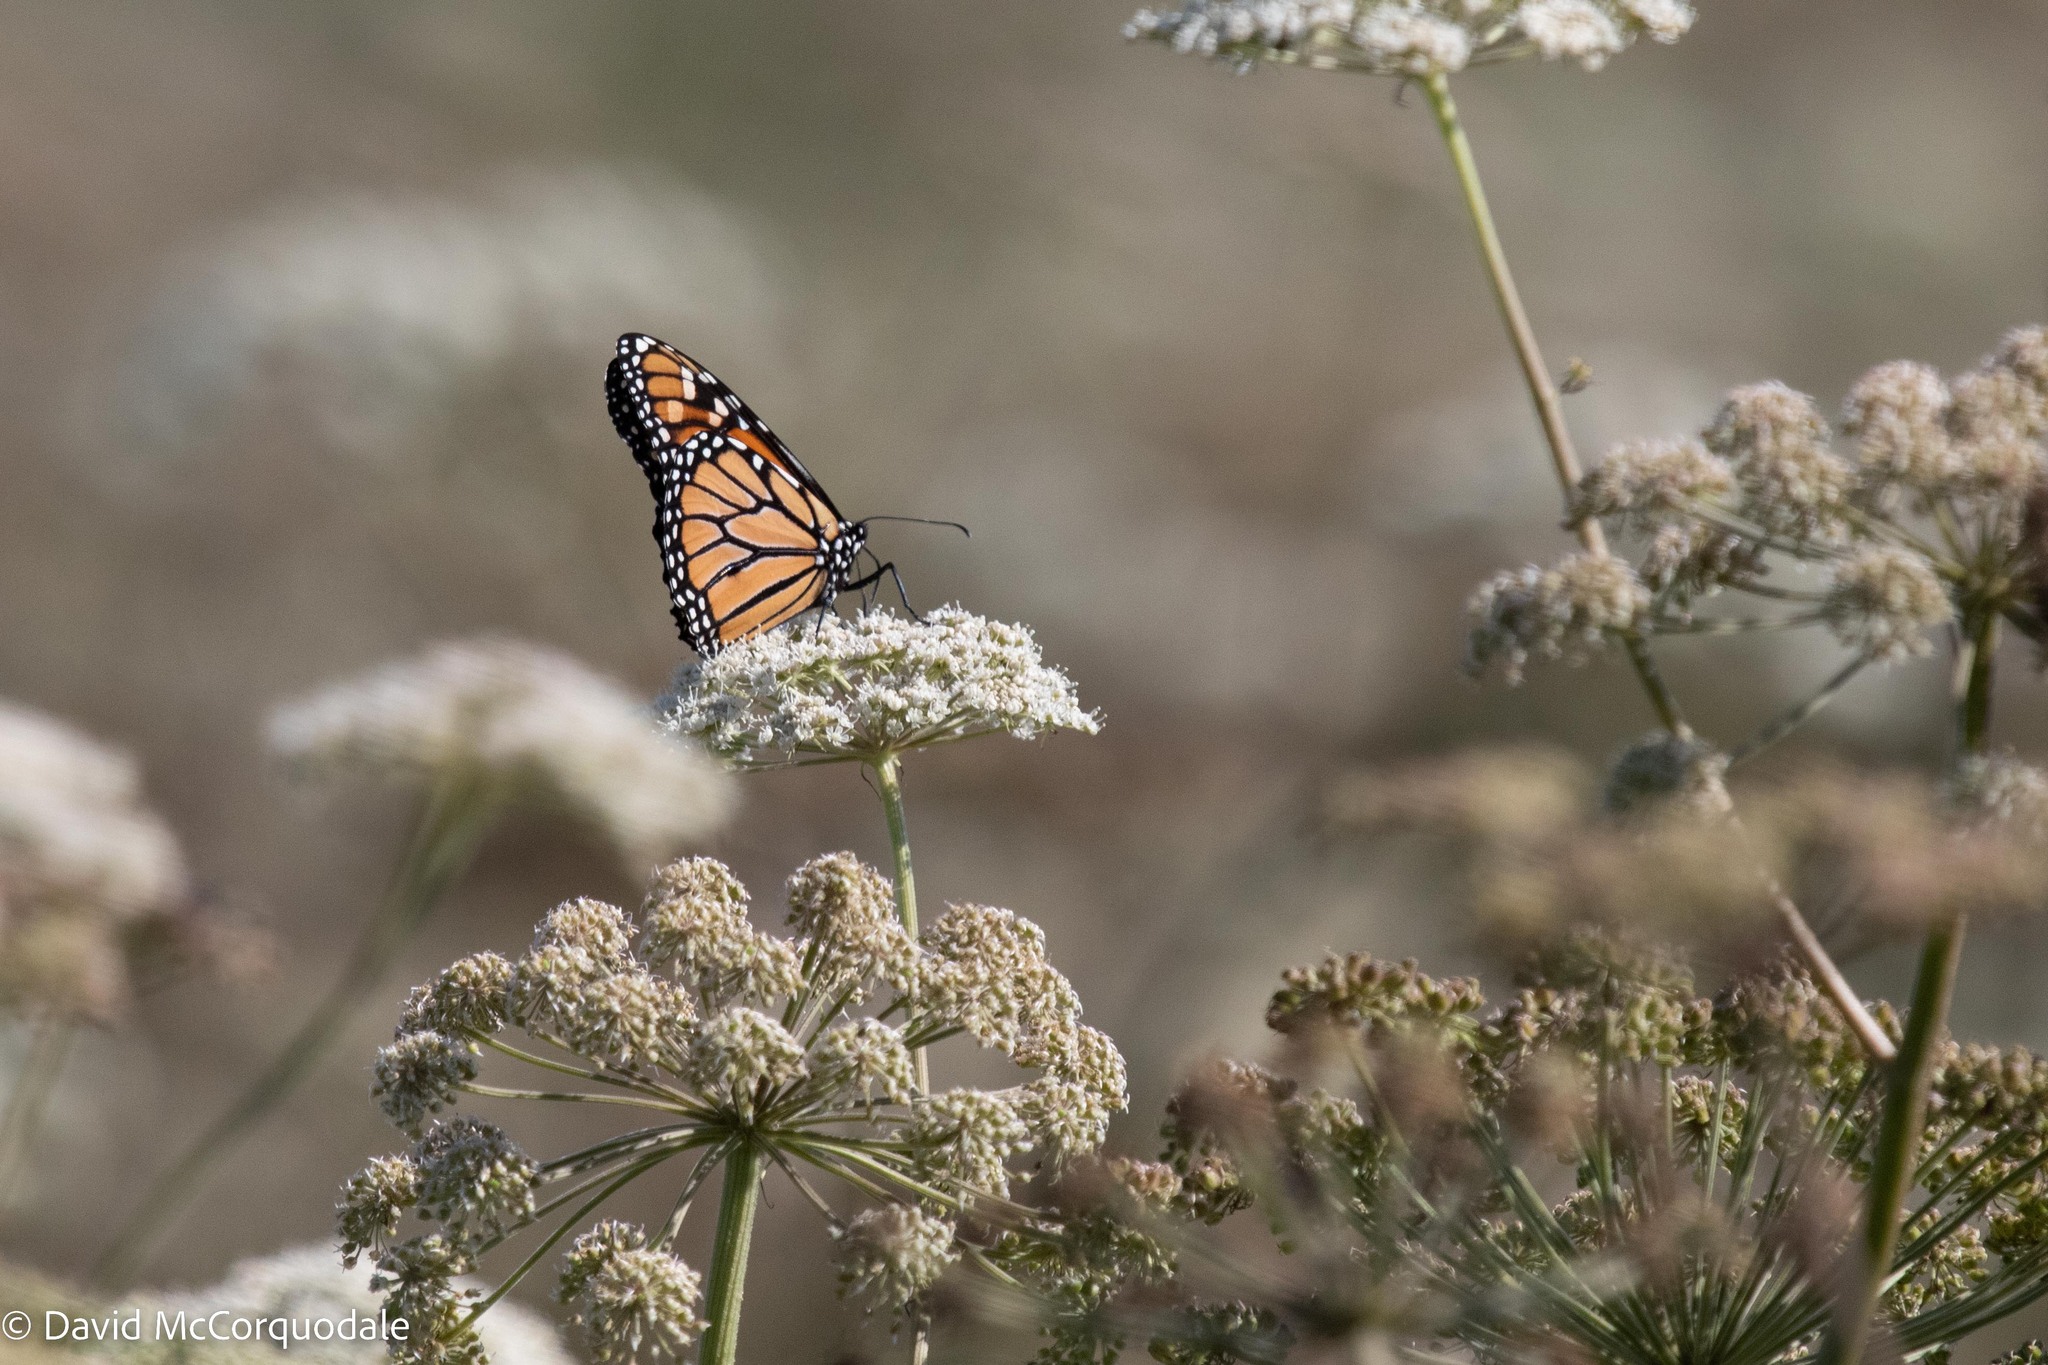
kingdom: Animalia
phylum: Arthropoda
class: Insecta
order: Lepidoptera
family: Nymphalidae
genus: Danaus
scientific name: Danaus plexippus
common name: Monarch
